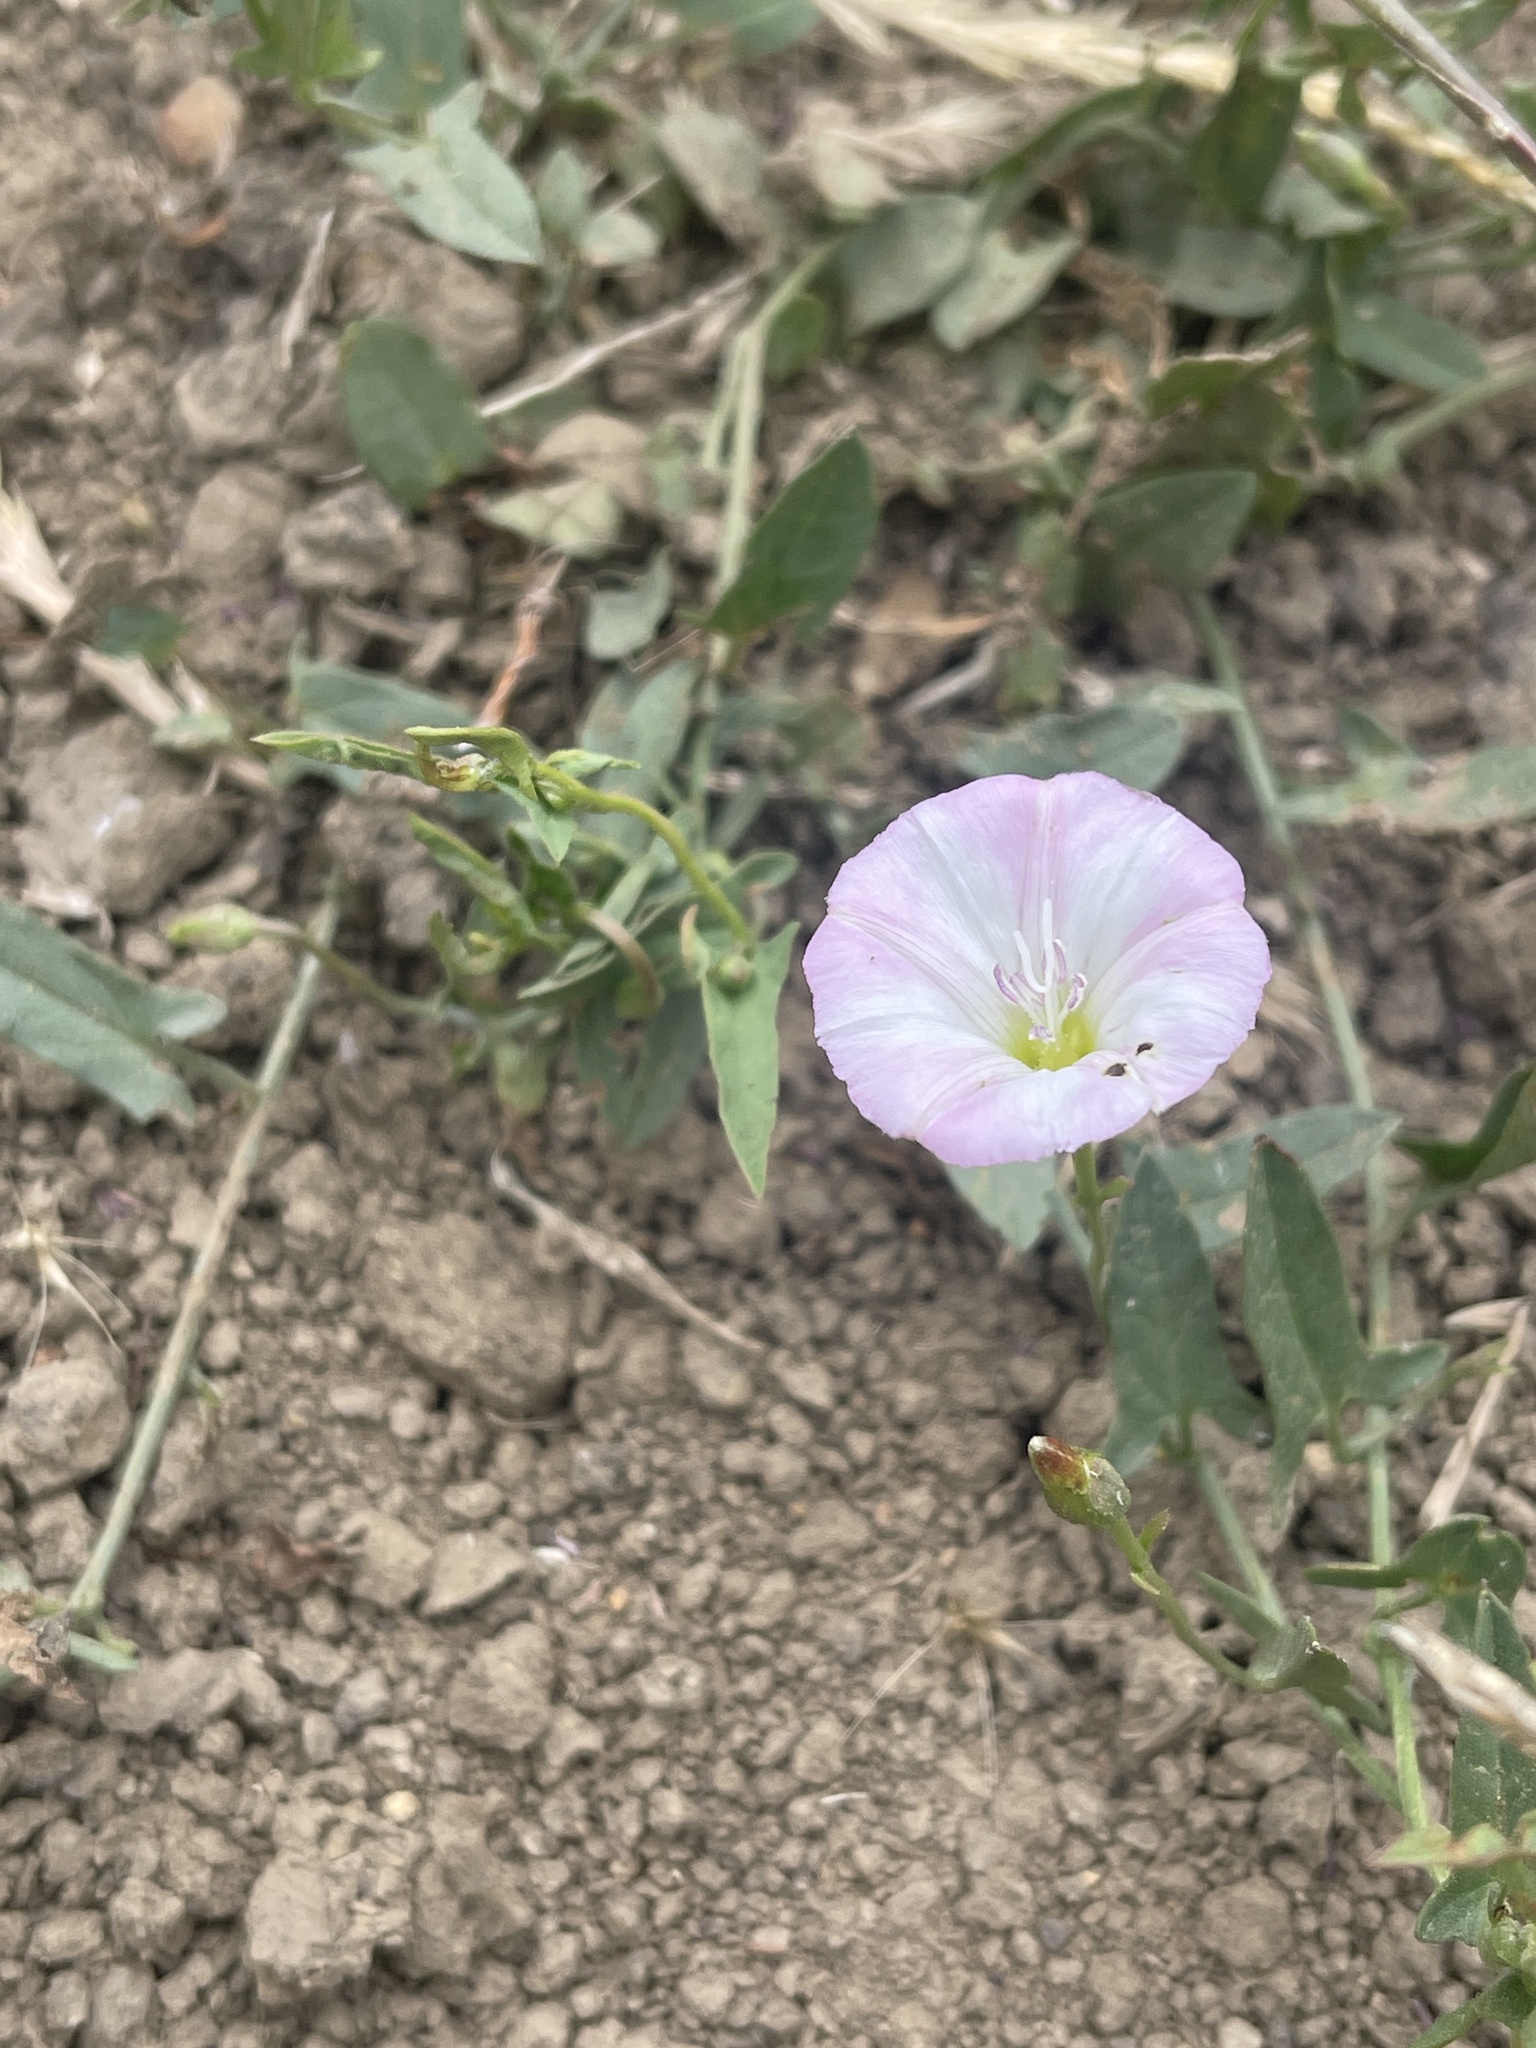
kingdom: Plantae
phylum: Tracheophyta
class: Magnoliopsida
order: Solanales
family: Convolvulaceae
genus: Convolvulus
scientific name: Convolvulus arvensis
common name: Field bindweed
